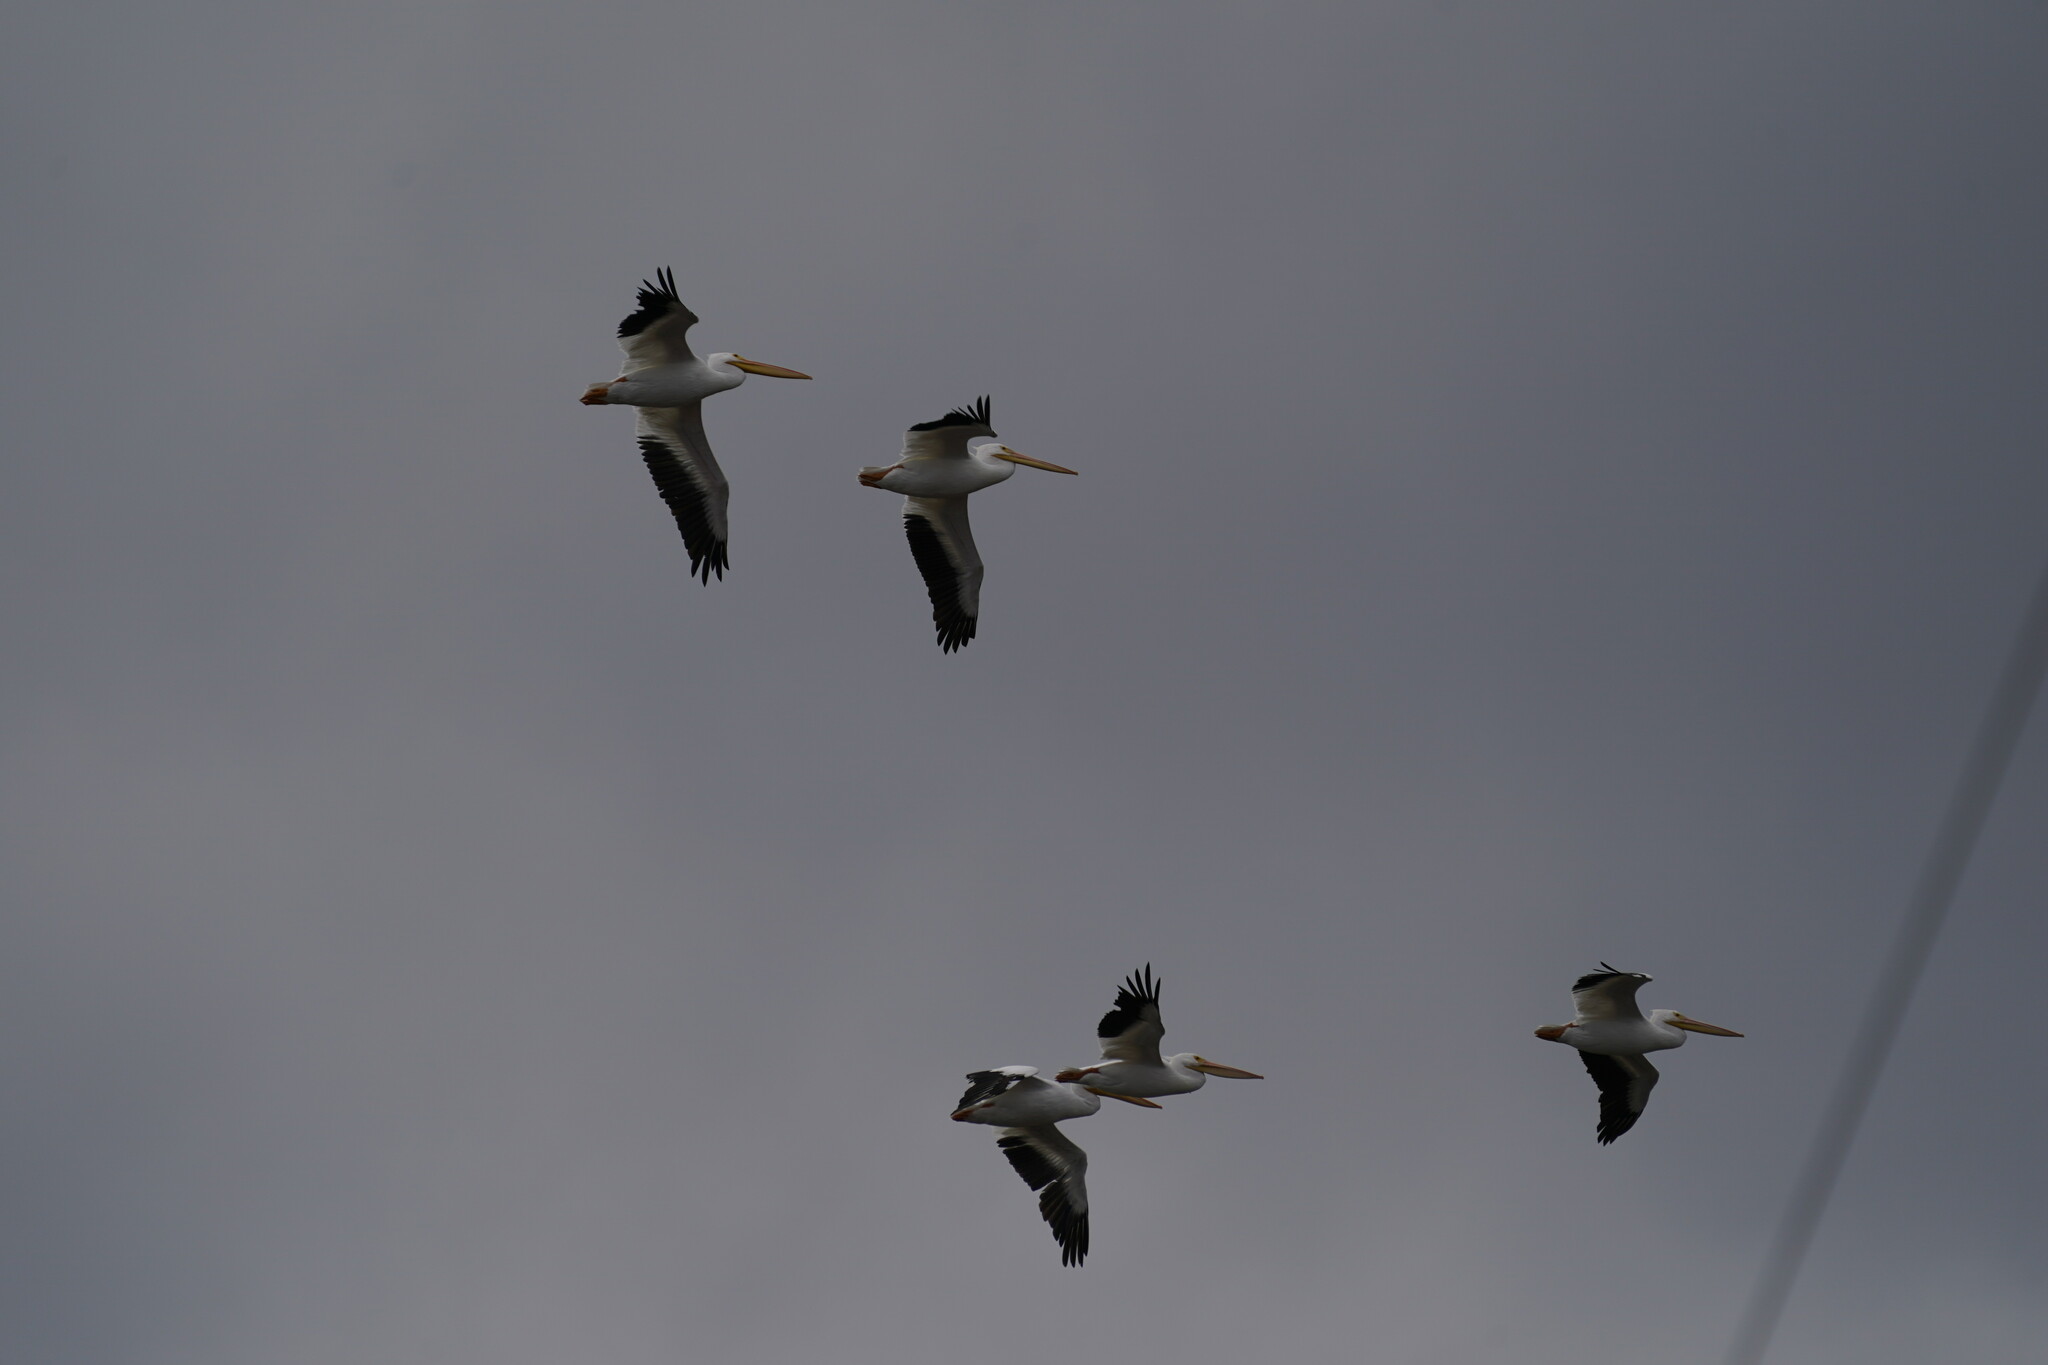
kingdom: Animalia
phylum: Chordata
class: Aves
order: Pelecaniformes
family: Pelecanidae
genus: Pelecanus
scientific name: Pelecanus erythrorhynchos
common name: American white pelican
